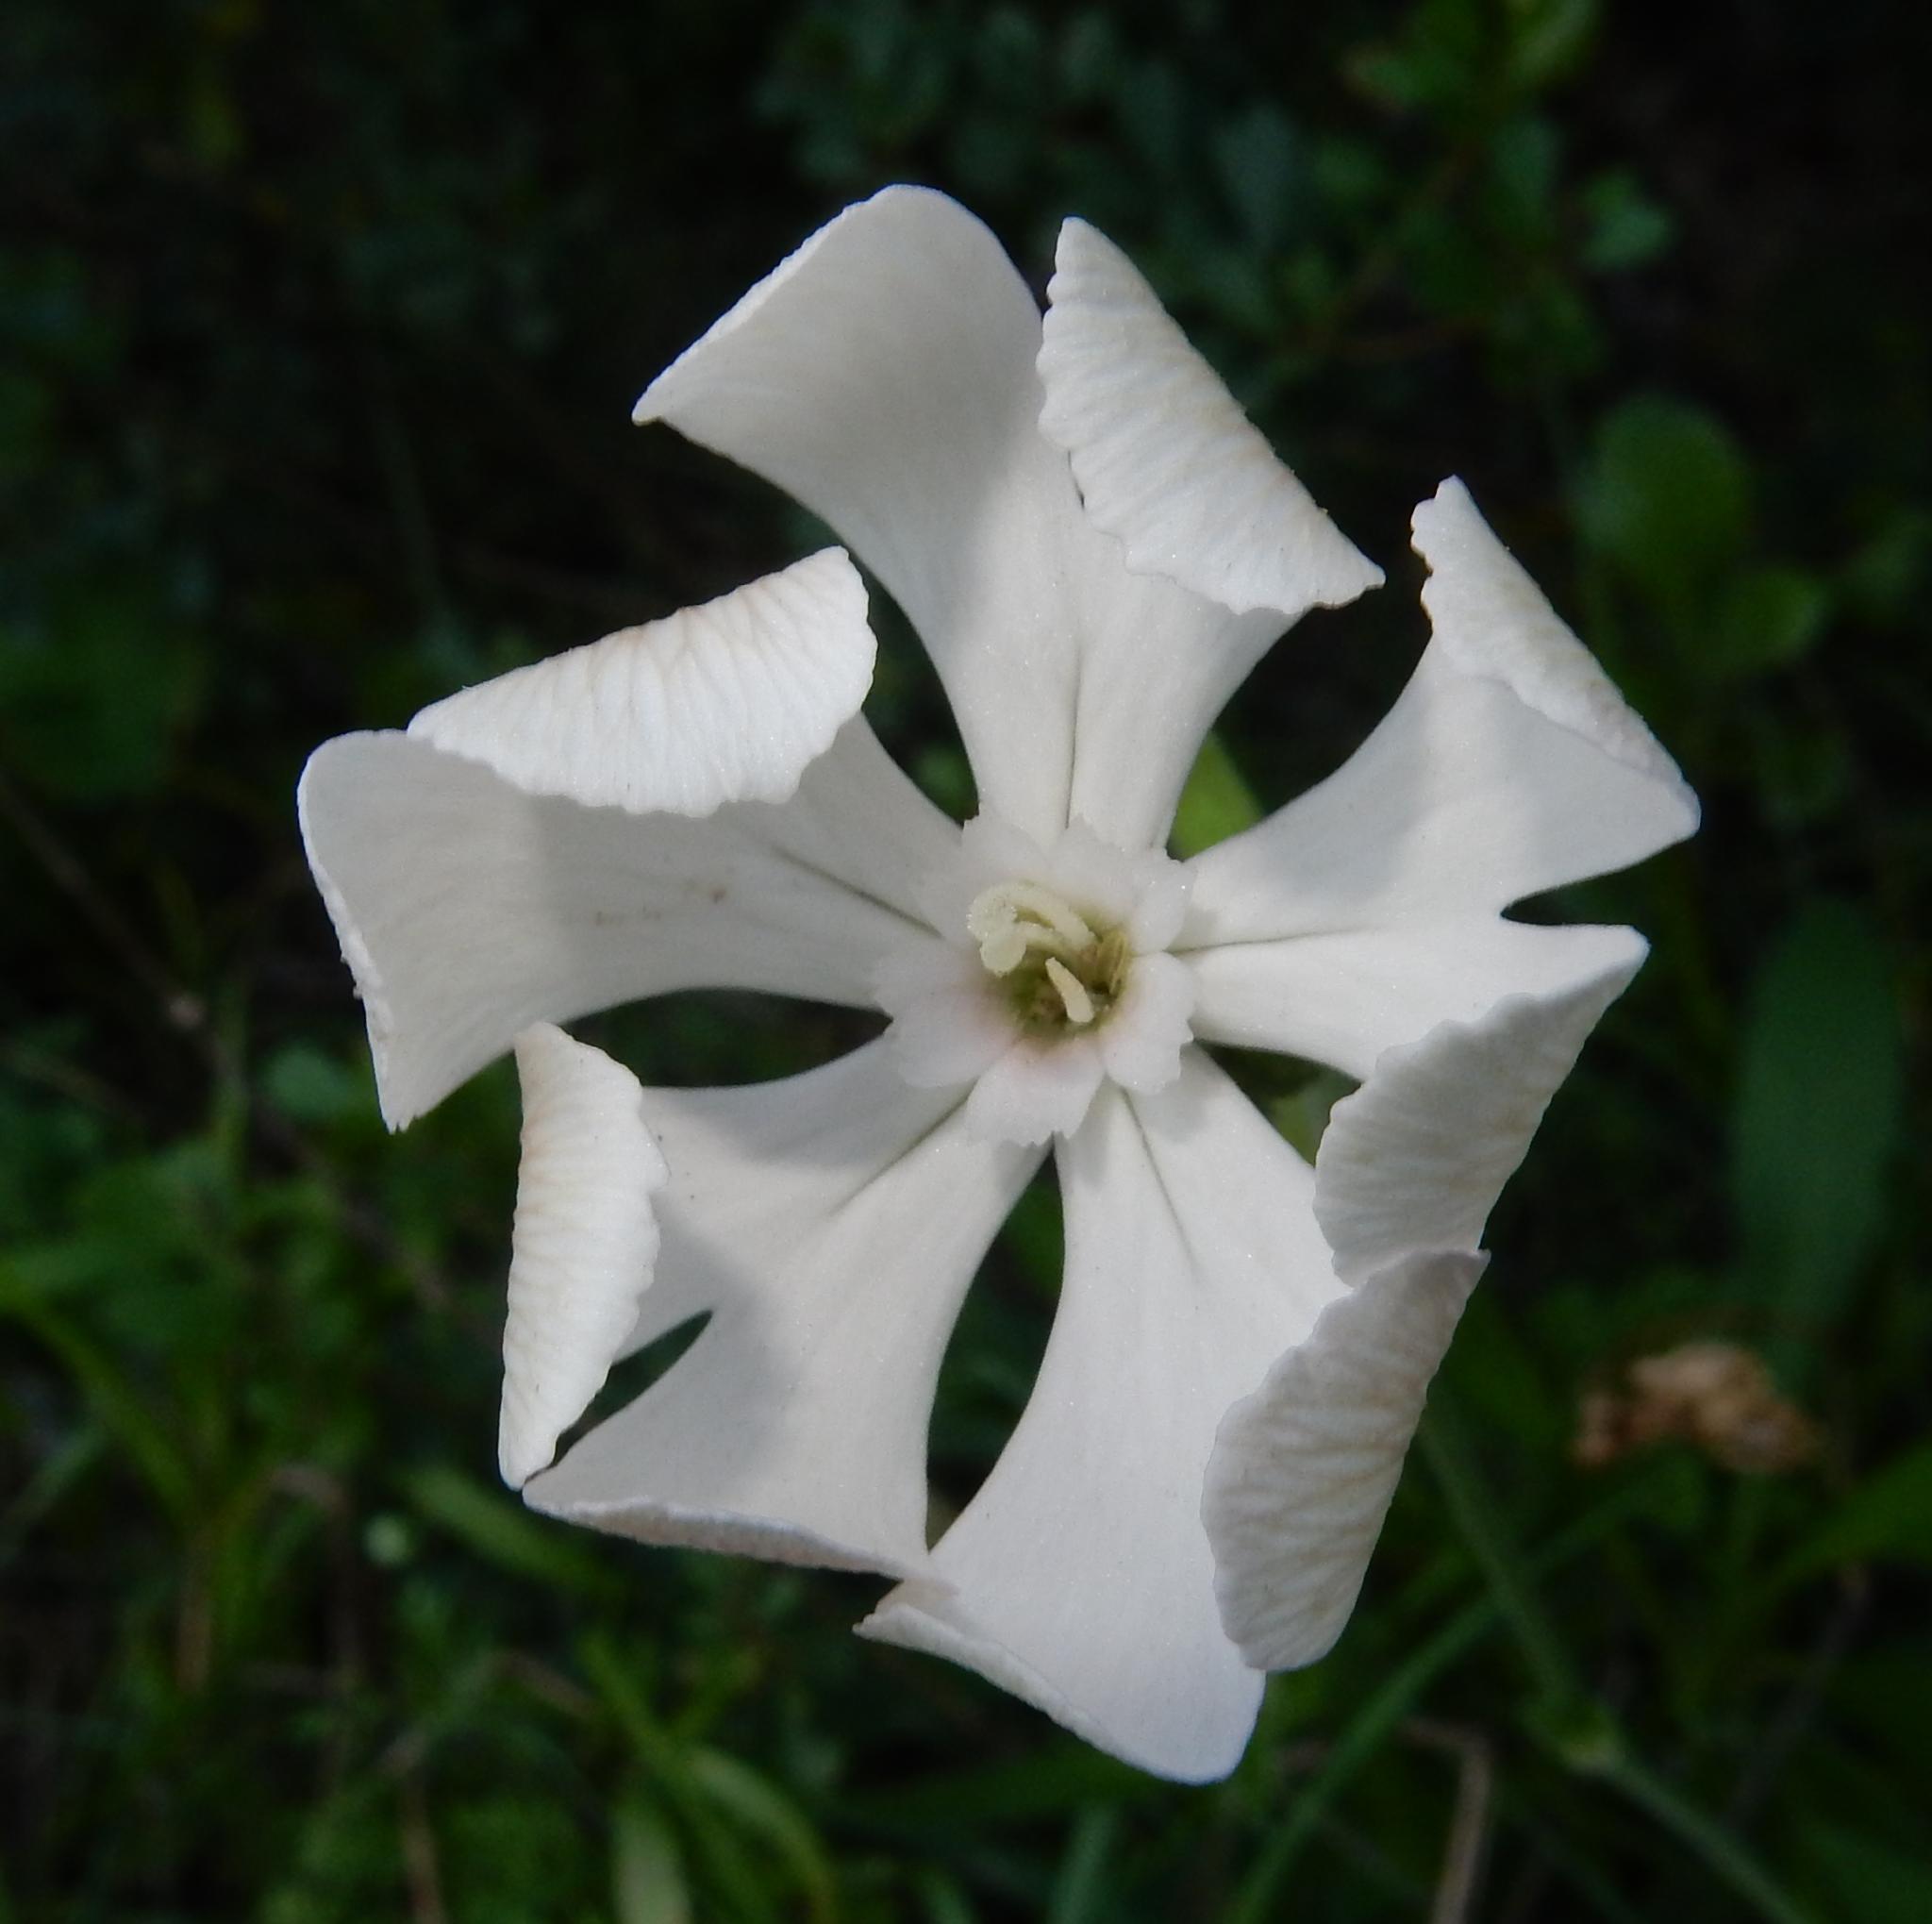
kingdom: Plantae
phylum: Tracheophyta
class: Magnoliopsida
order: Caryophyllales
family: Caryophyllaceae
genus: Silene
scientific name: Silene undulata
